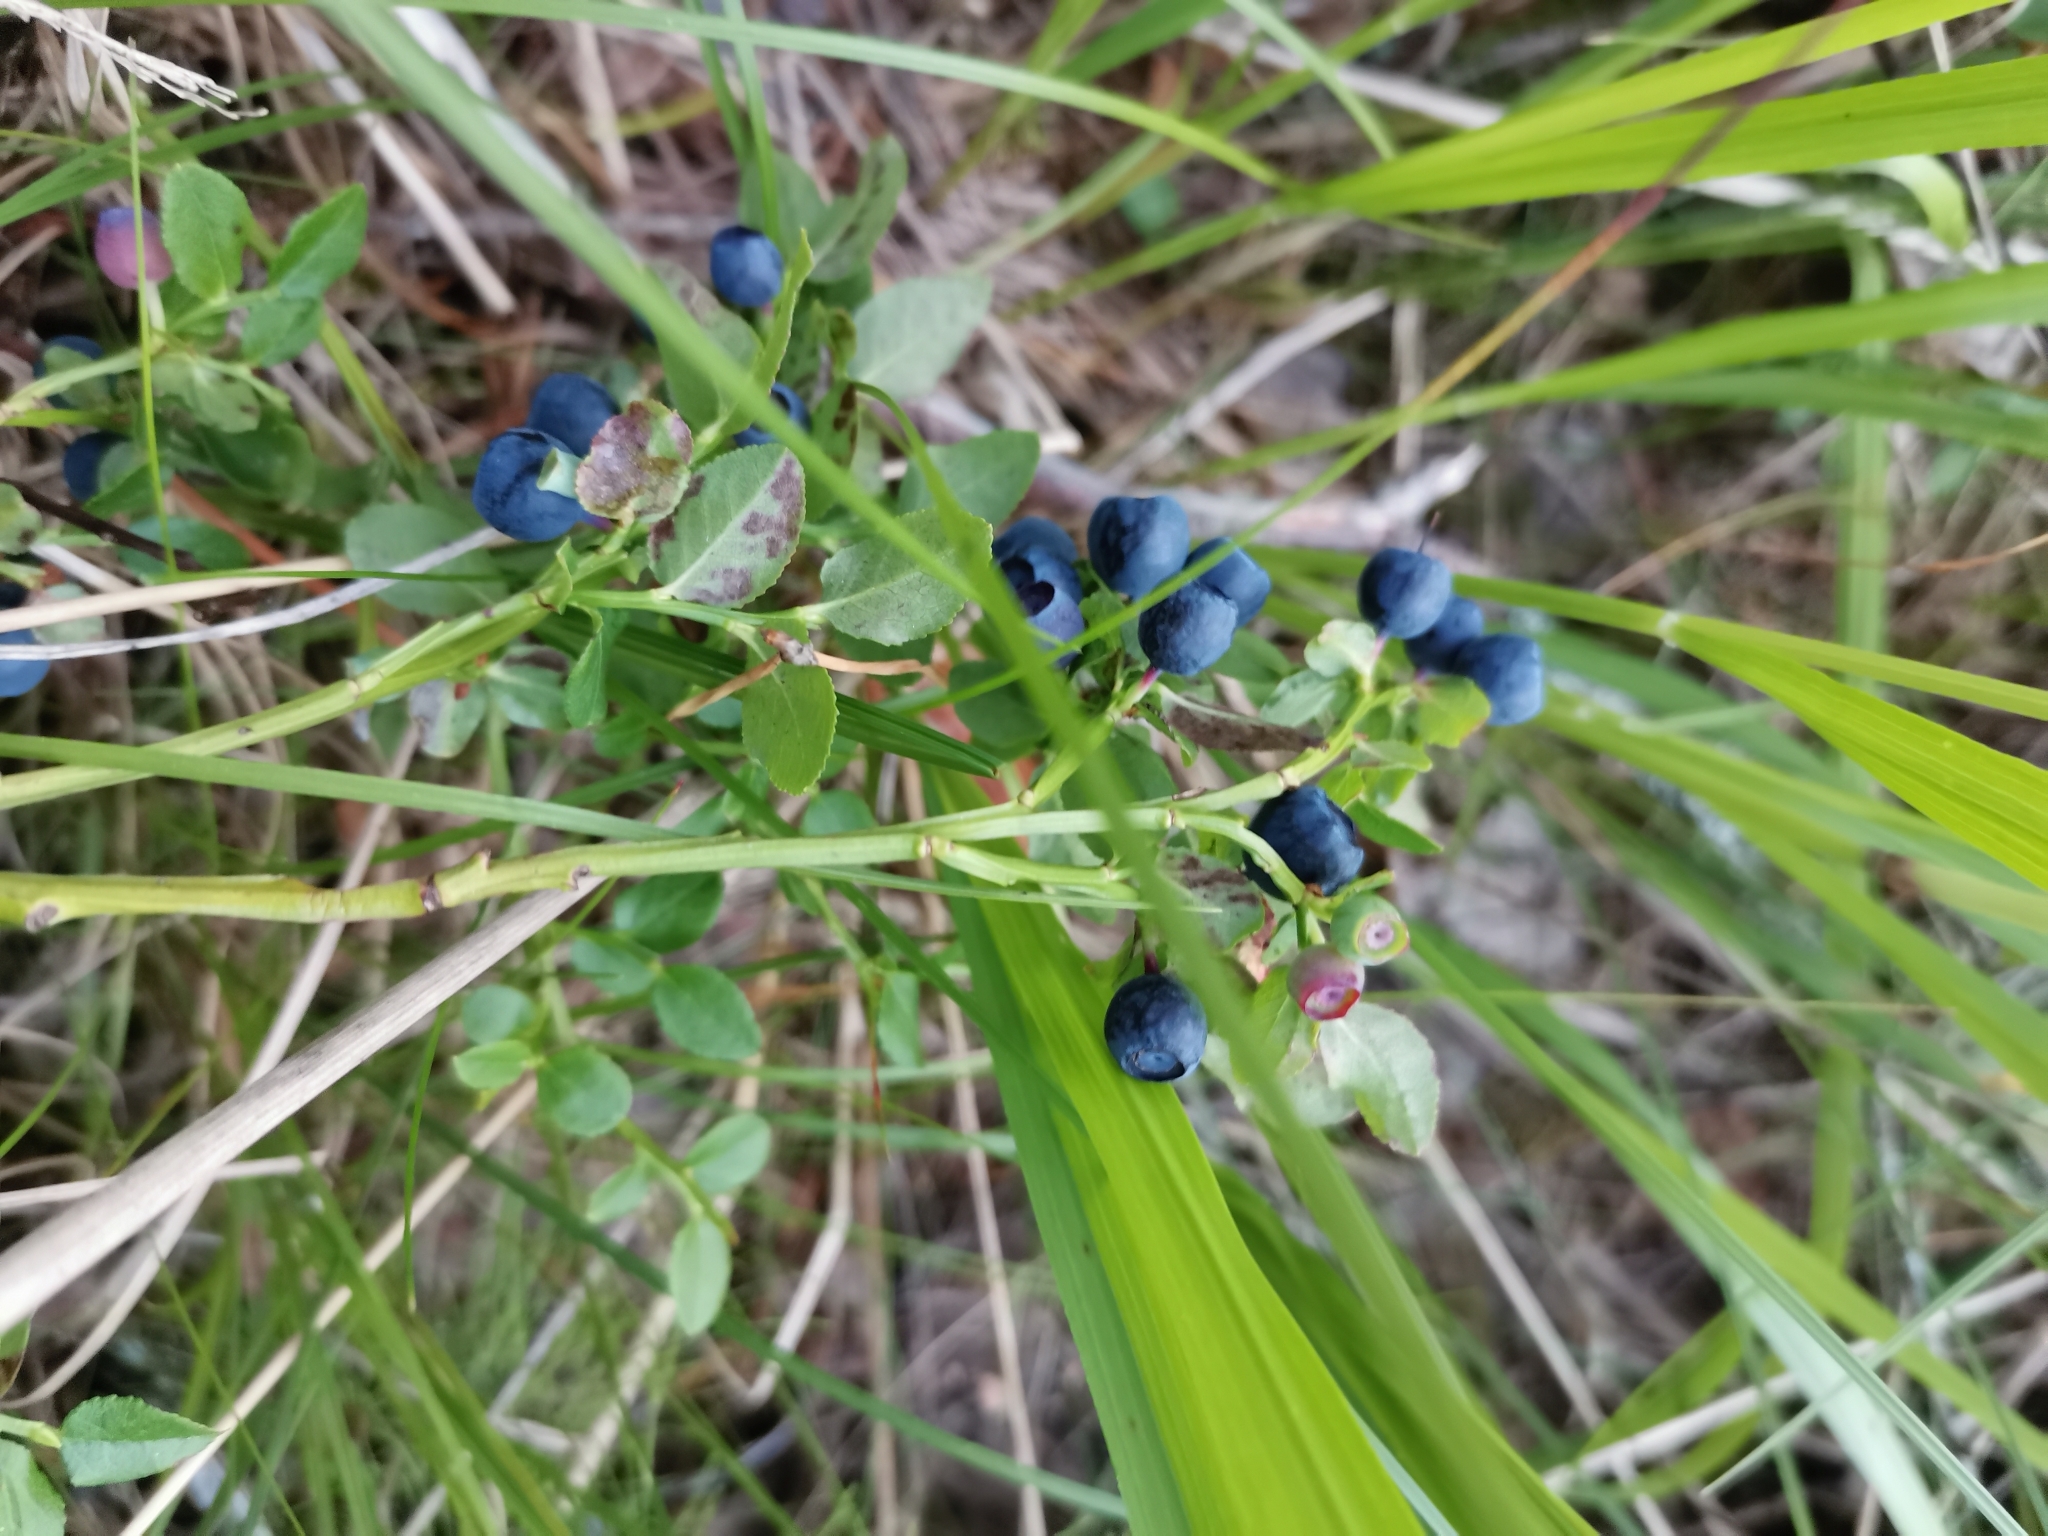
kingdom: Plantae
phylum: Tracheophyta
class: Magnoliopsida
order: Ericales
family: Ericaceae
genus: Vaccinium
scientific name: Vaccinium myrtillus
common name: Bilberry
